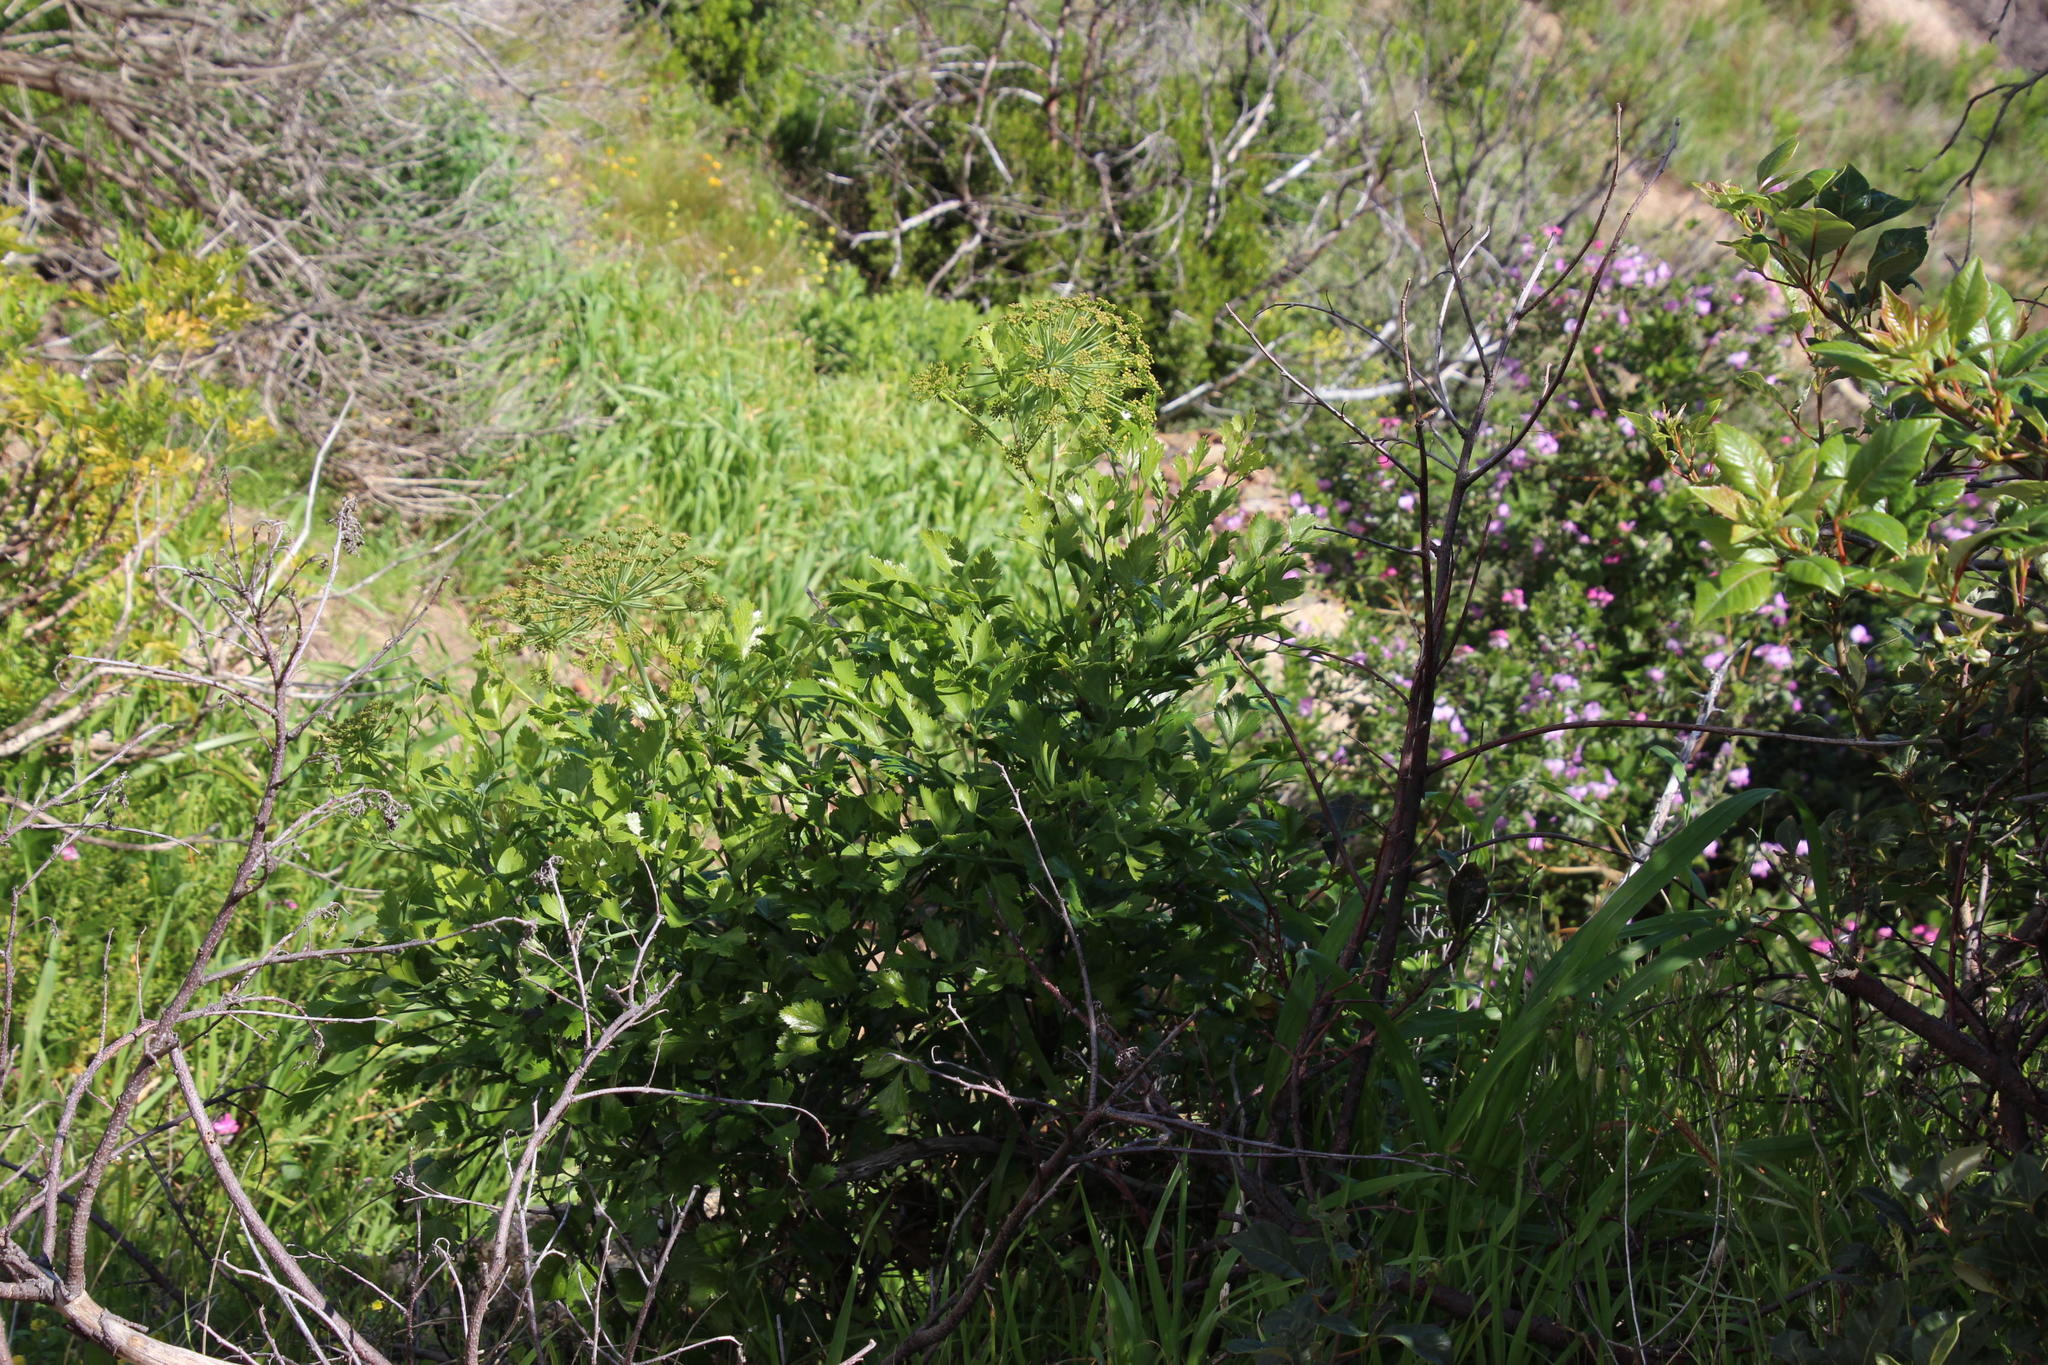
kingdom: Plantae
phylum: Tracheophyta
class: Magnoliopsida
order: Apiales
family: Apiaceae
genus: Notobubon
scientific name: Notobubon galbanum
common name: Blisterbush
